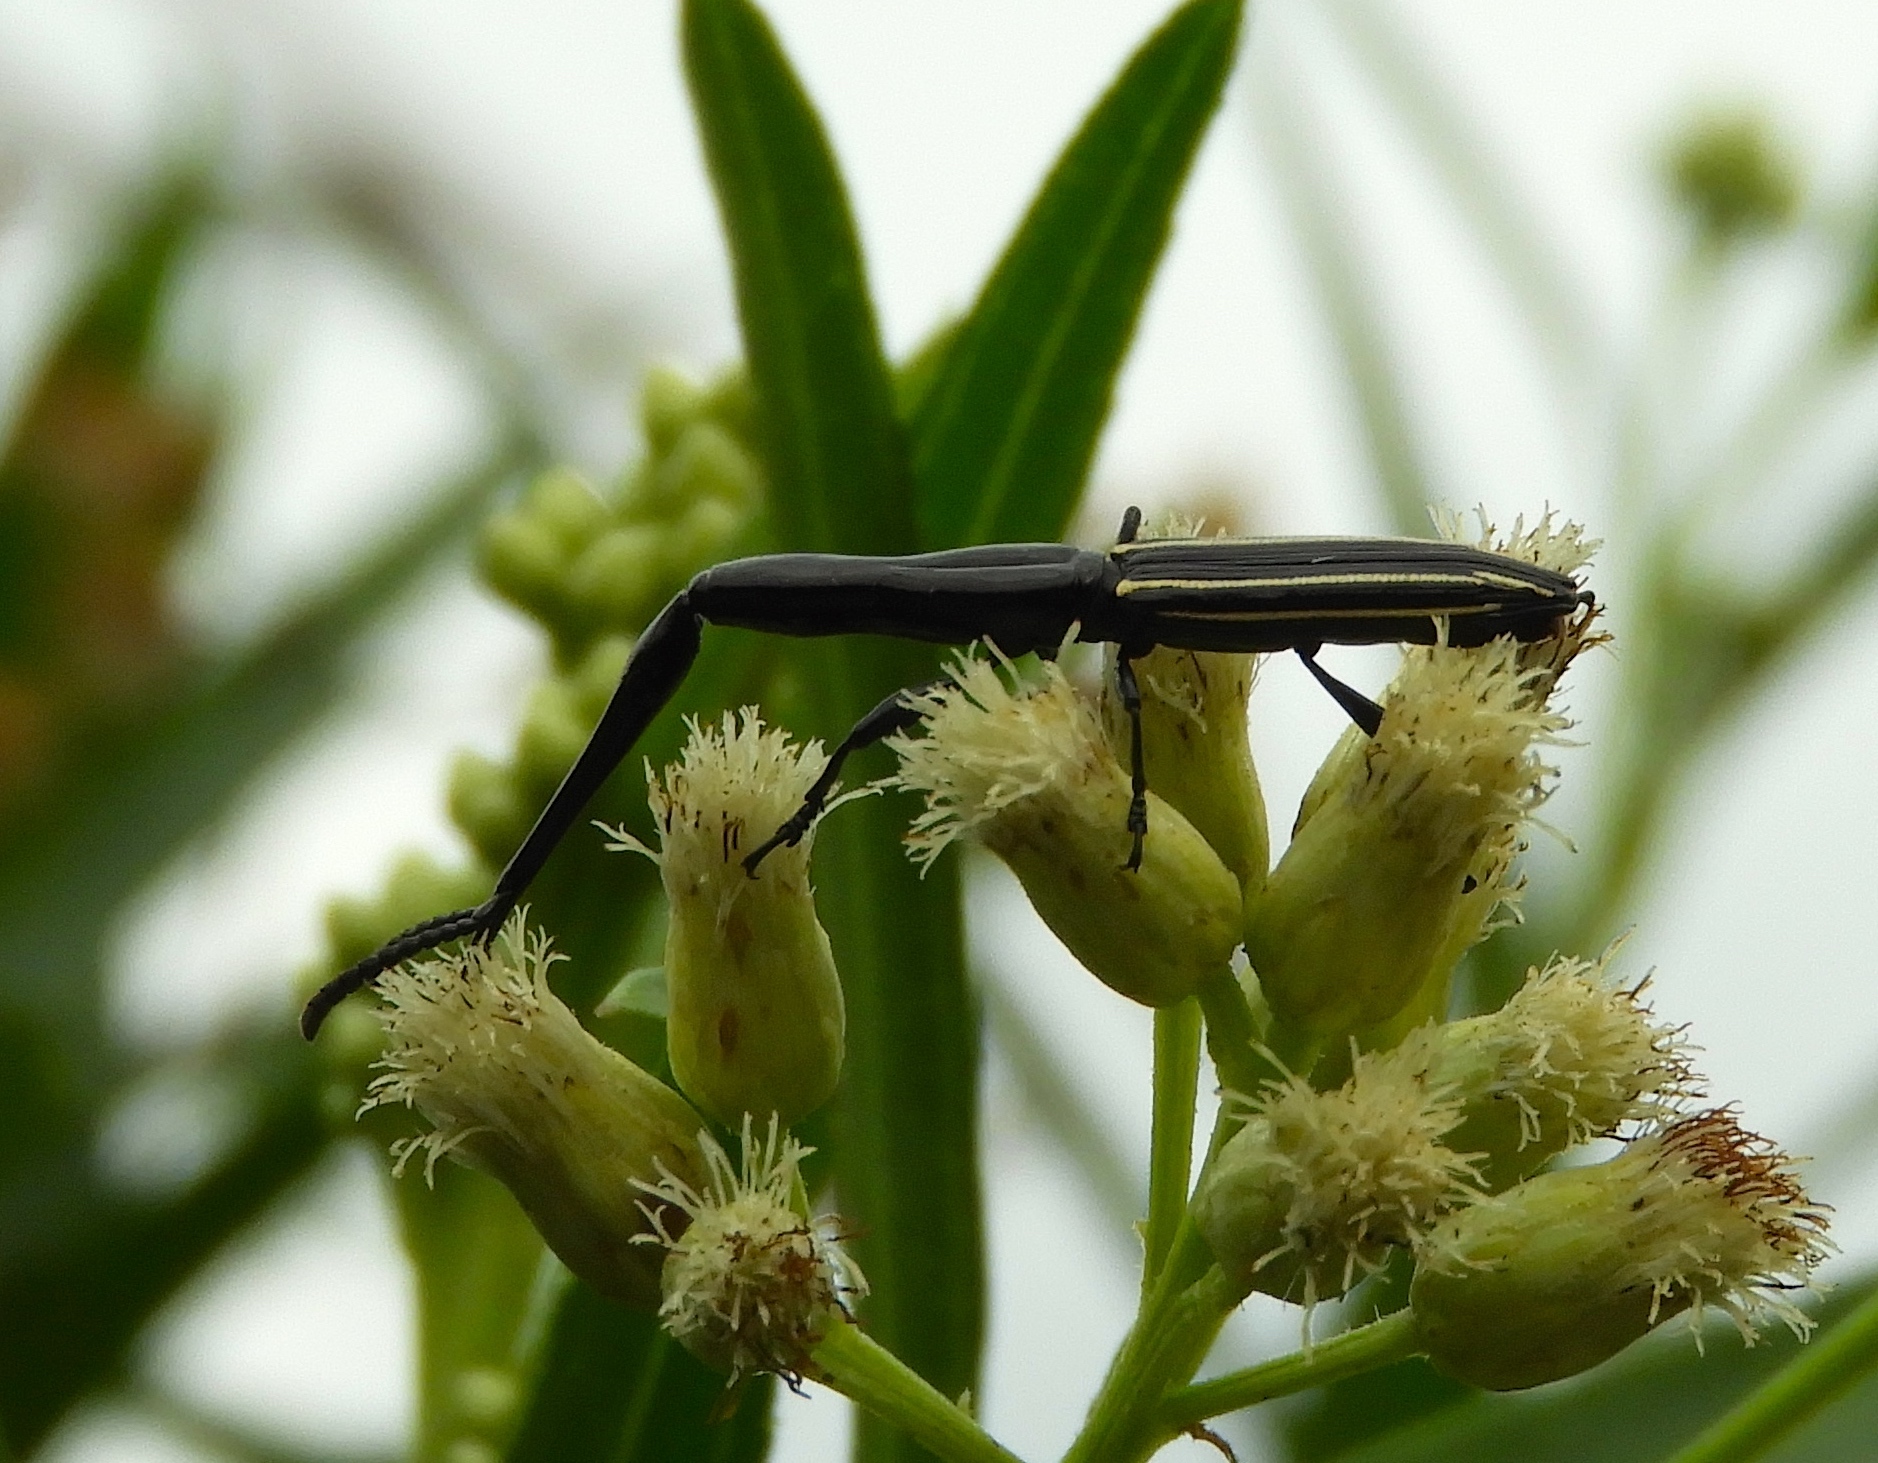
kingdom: Animalia
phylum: Arthropoda
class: Insecta
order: Coleoptera
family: Brentidae
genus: Brentus
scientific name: Brentus anchorago
